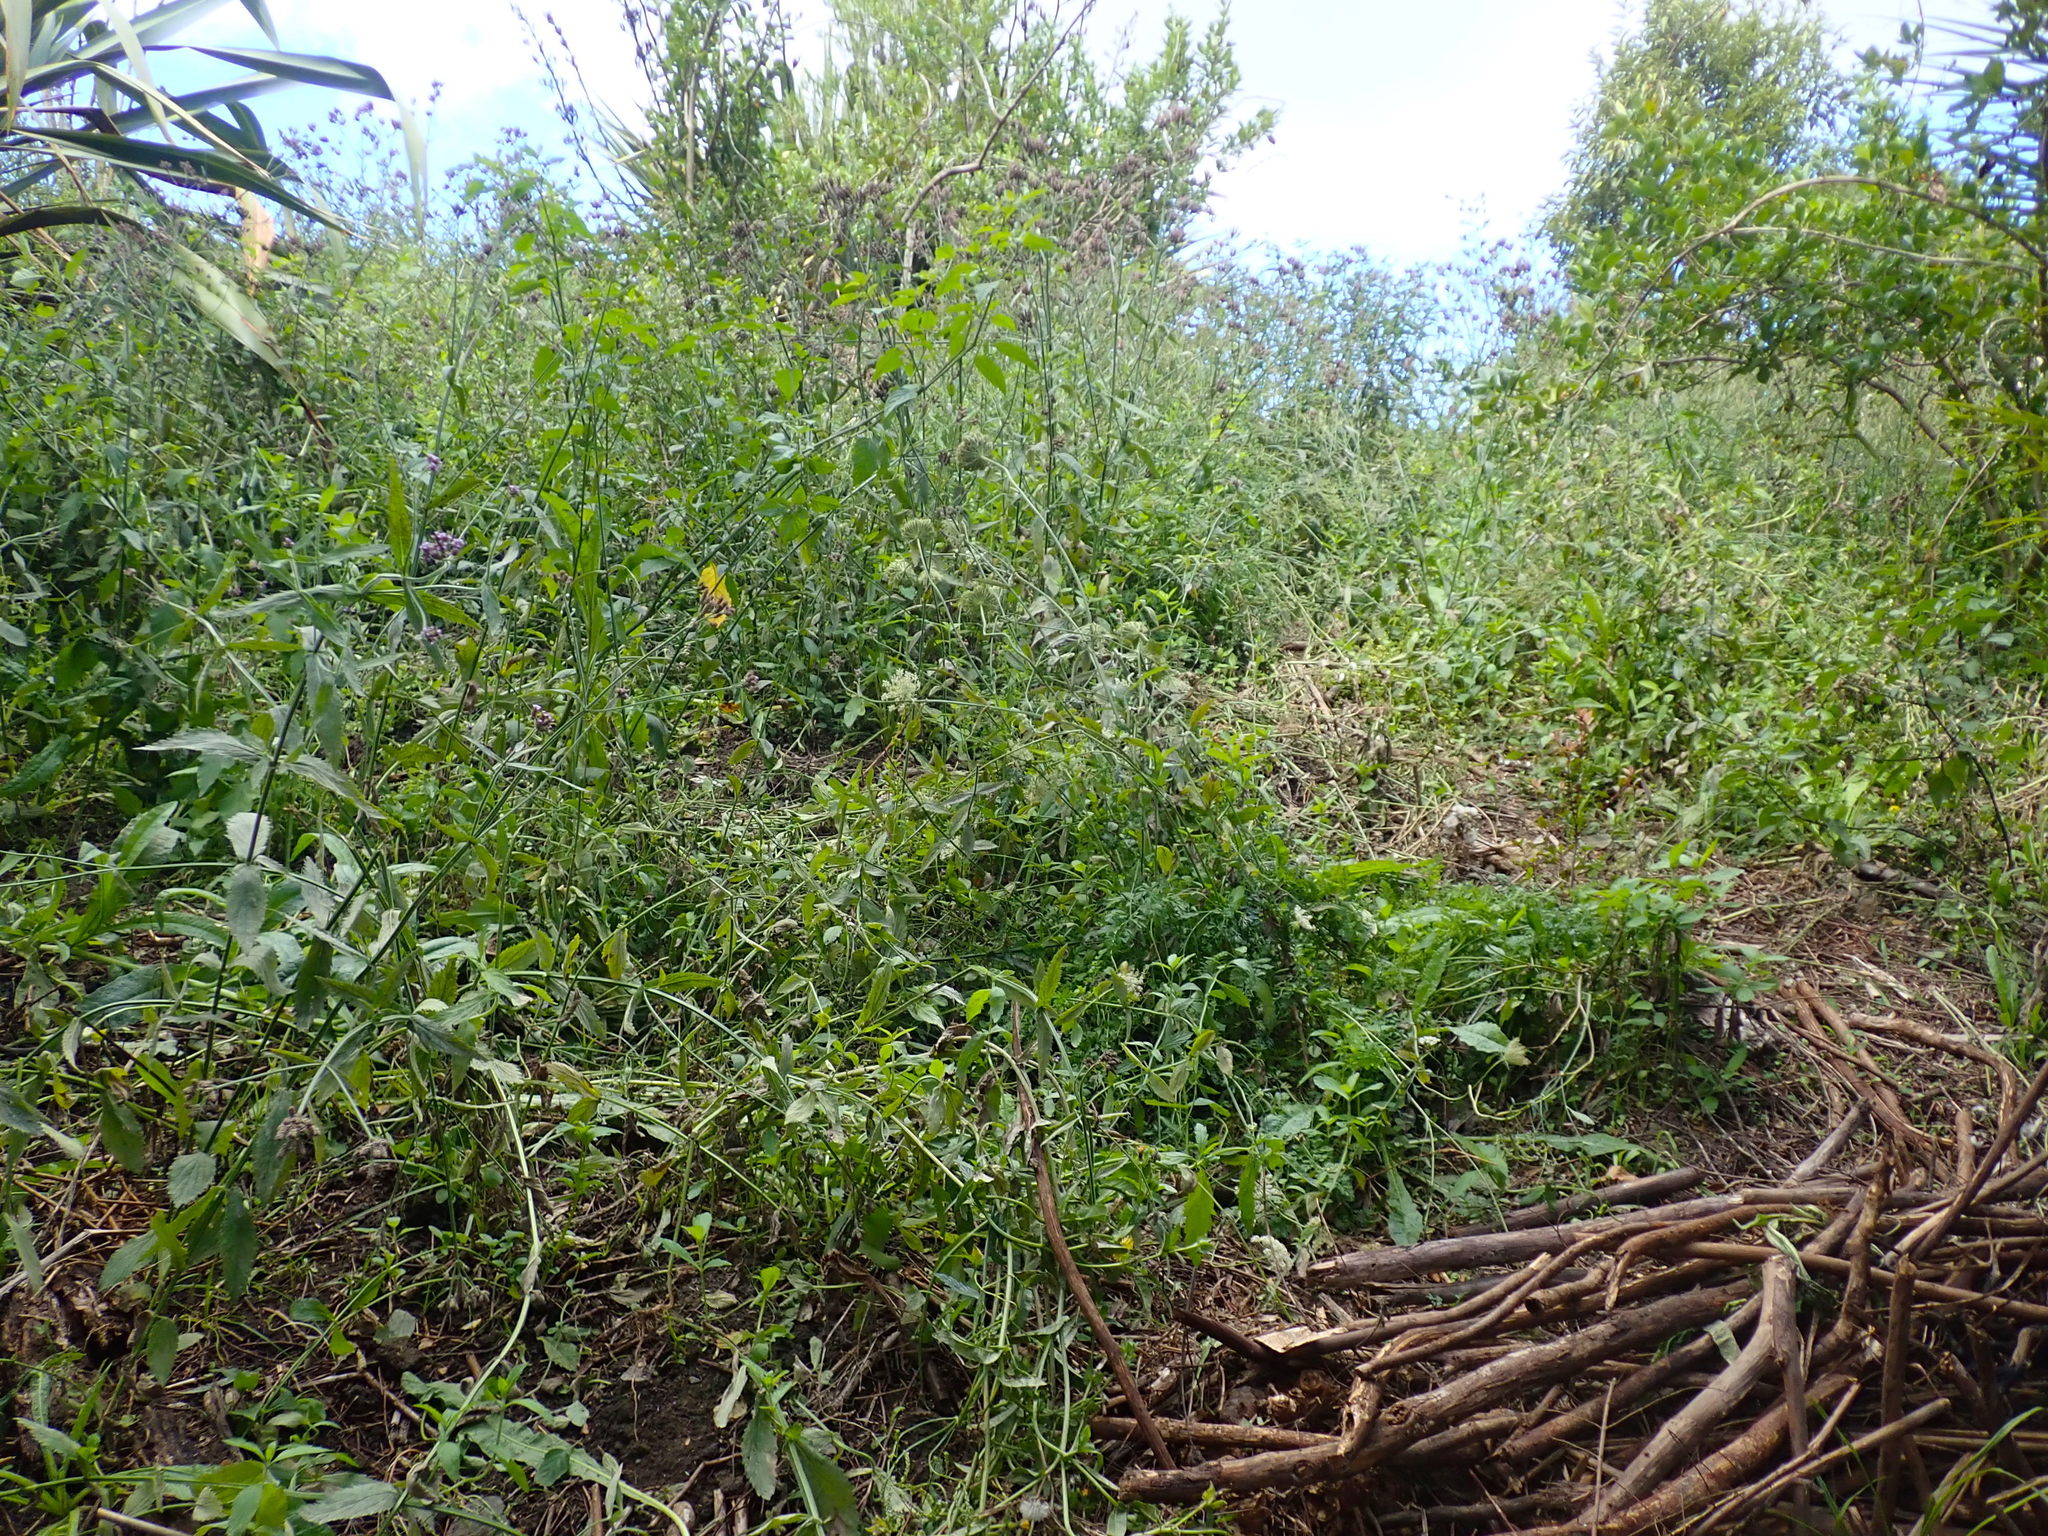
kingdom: Plantae
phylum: Tracheophyta
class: Magnoliopsida
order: Apiales
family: Apiaceae
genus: Daucus
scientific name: Daucus carota
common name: Wild carrot
